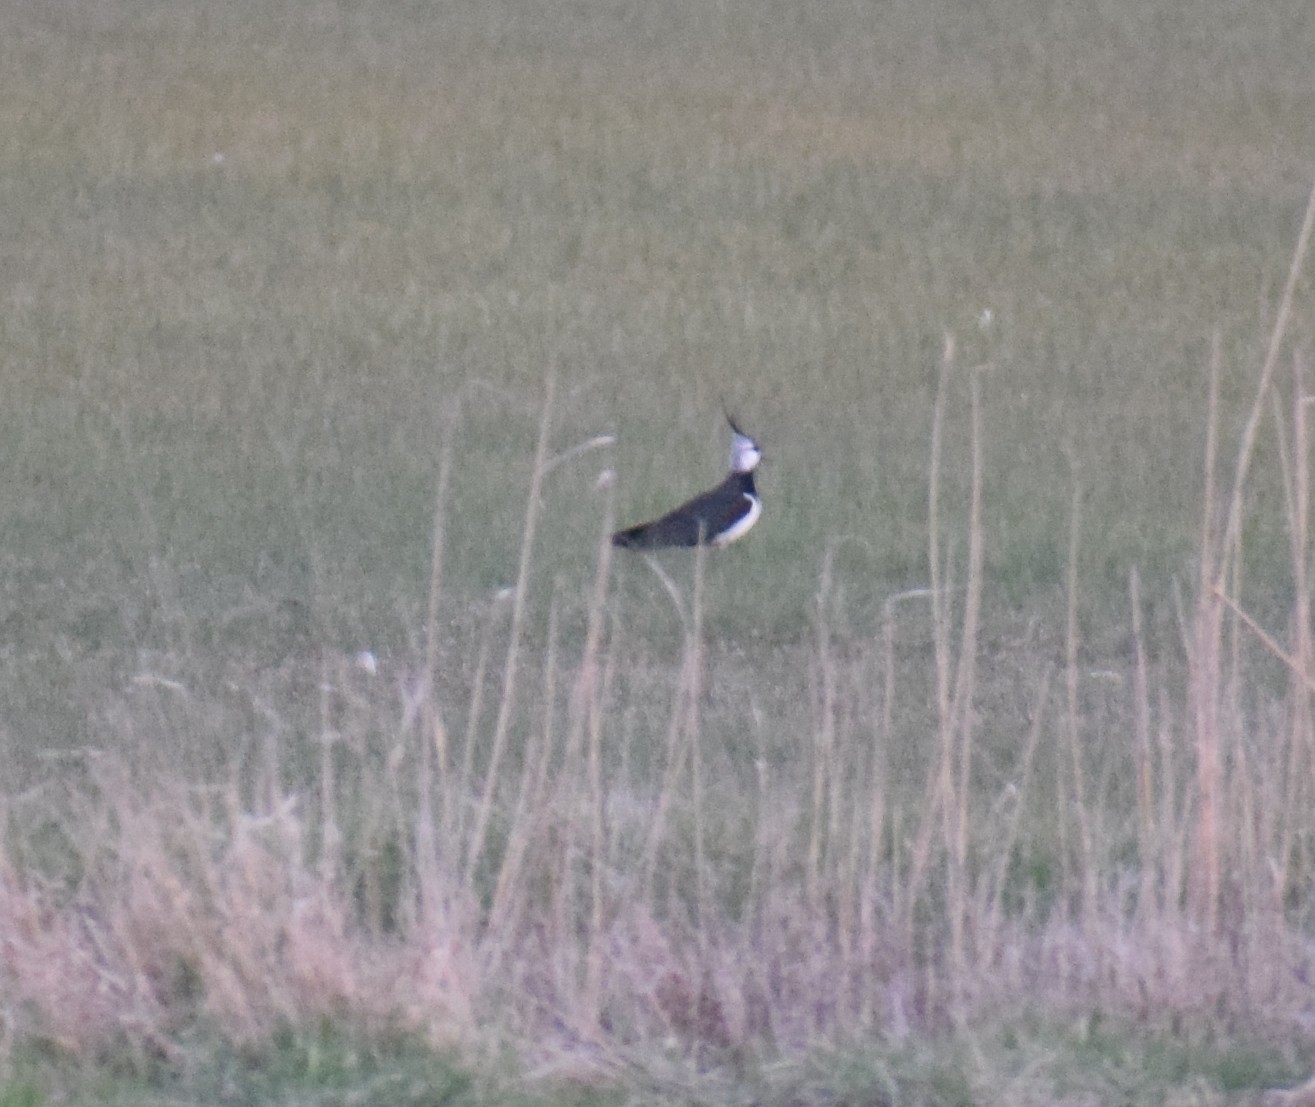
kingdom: Animalia
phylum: Chordata
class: Aves
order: Charadriiformes
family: Charadriidae
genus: Vanellus
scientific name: Vanellus vanellus
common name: Northern lapwing
